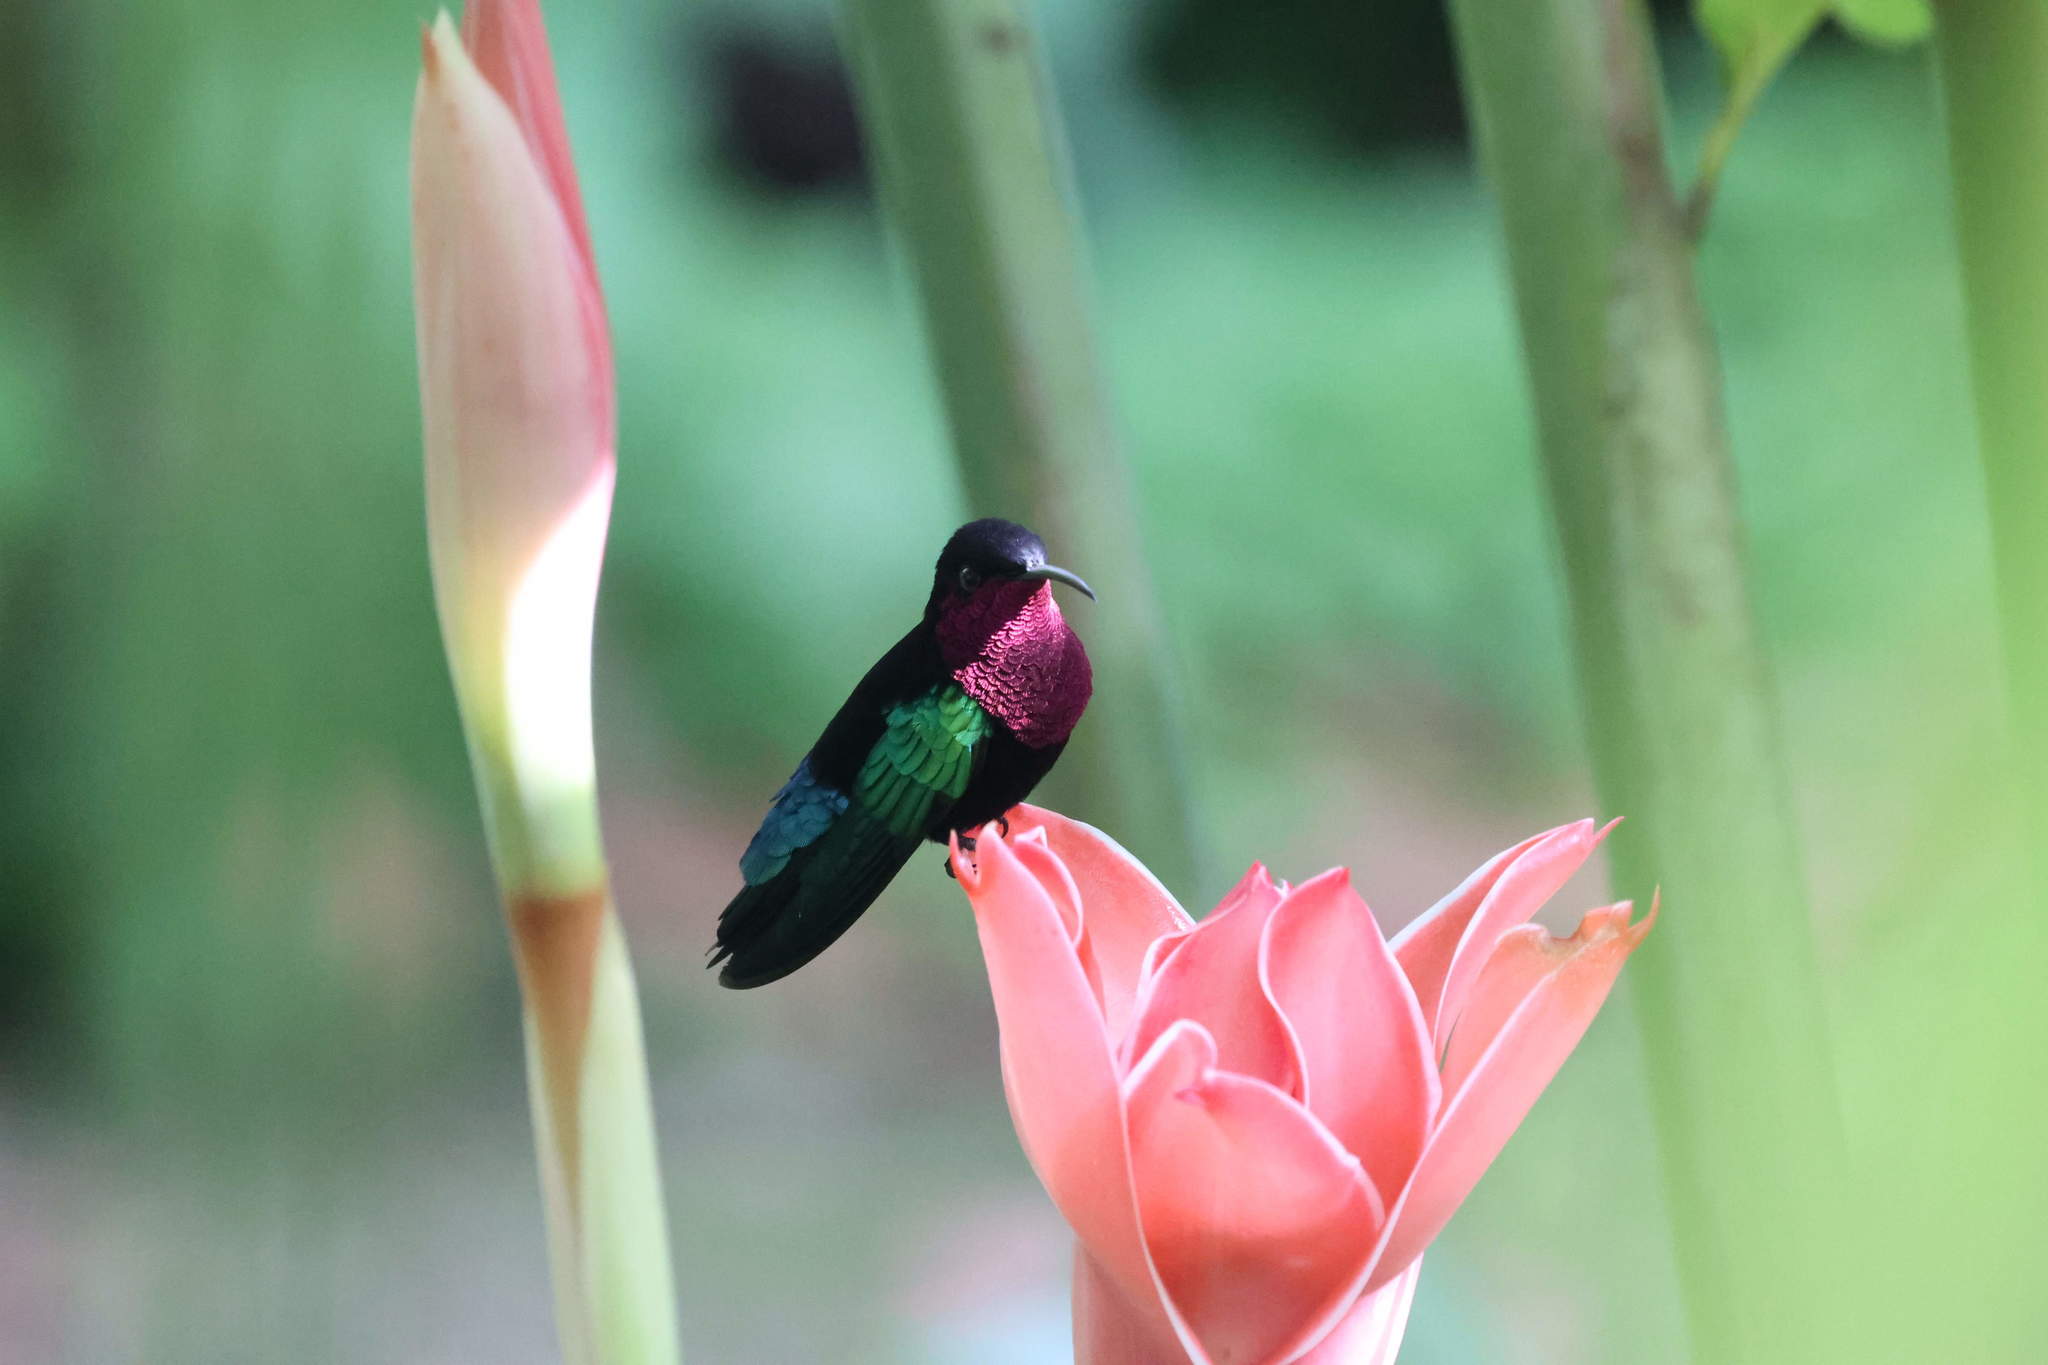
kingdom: Animalia
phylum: Chordata
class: Aves
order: Apodiformes
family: Trochilidae
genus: Eulampis
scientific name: Eulampis jugularis
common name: Purple-throated carib
